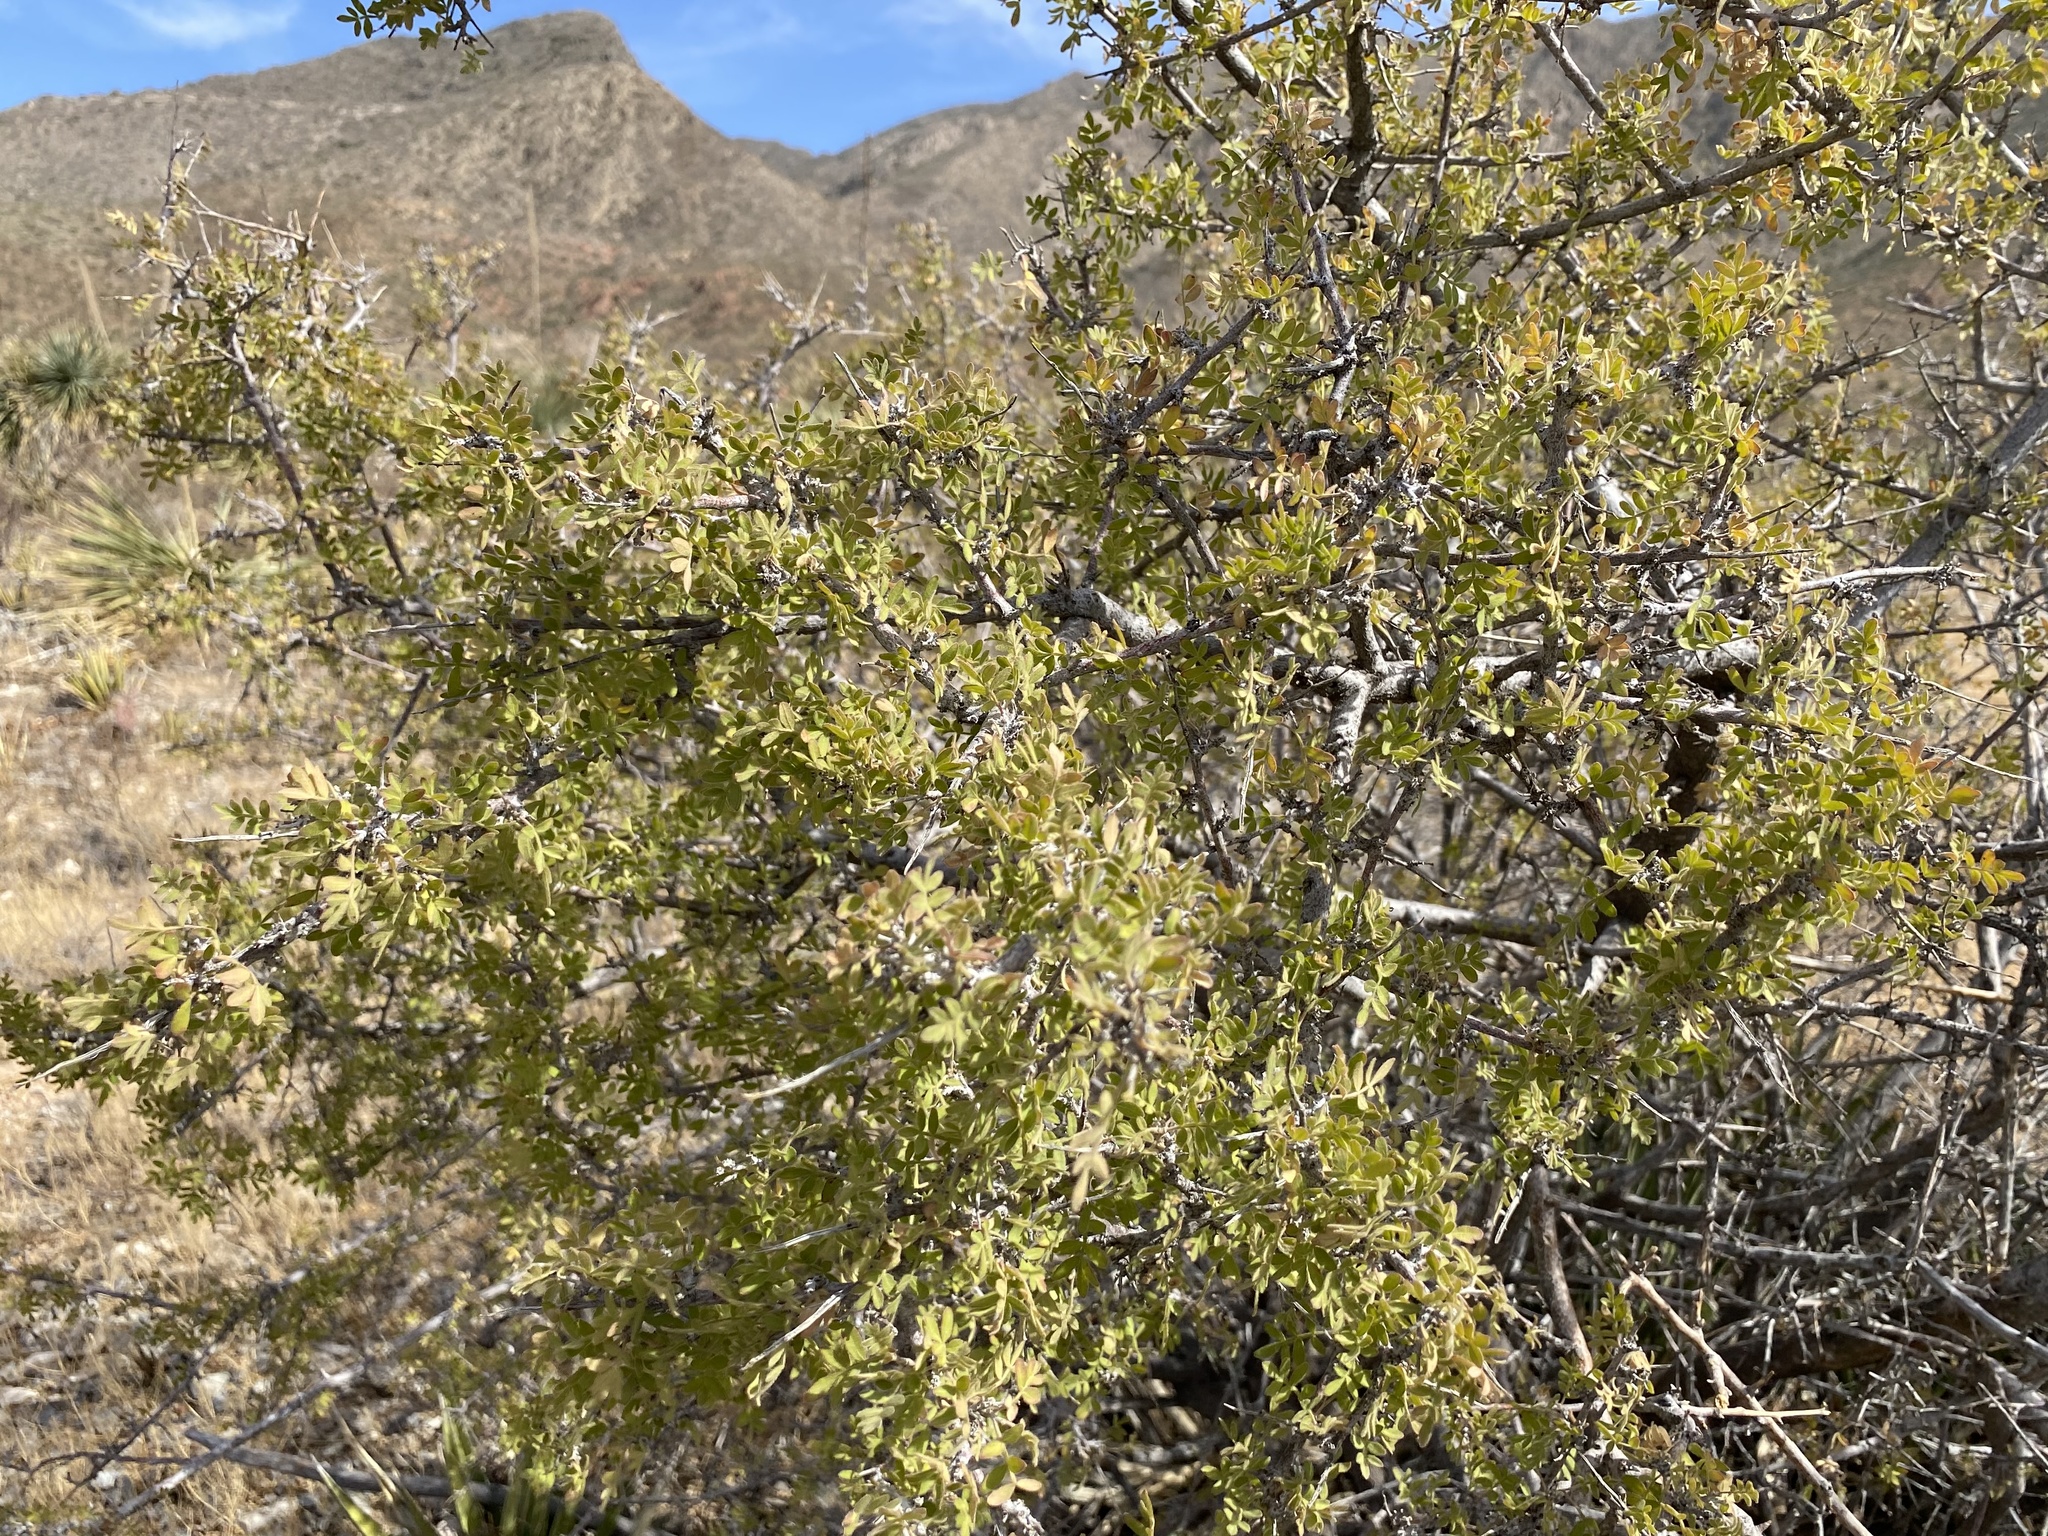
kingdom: Plantae
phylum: Tracheophyta
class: Magnoliopsida
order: Sapindales
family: Anacardiaceae
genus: Rhus
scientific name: Rhus microphylla
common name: Desert sumac
